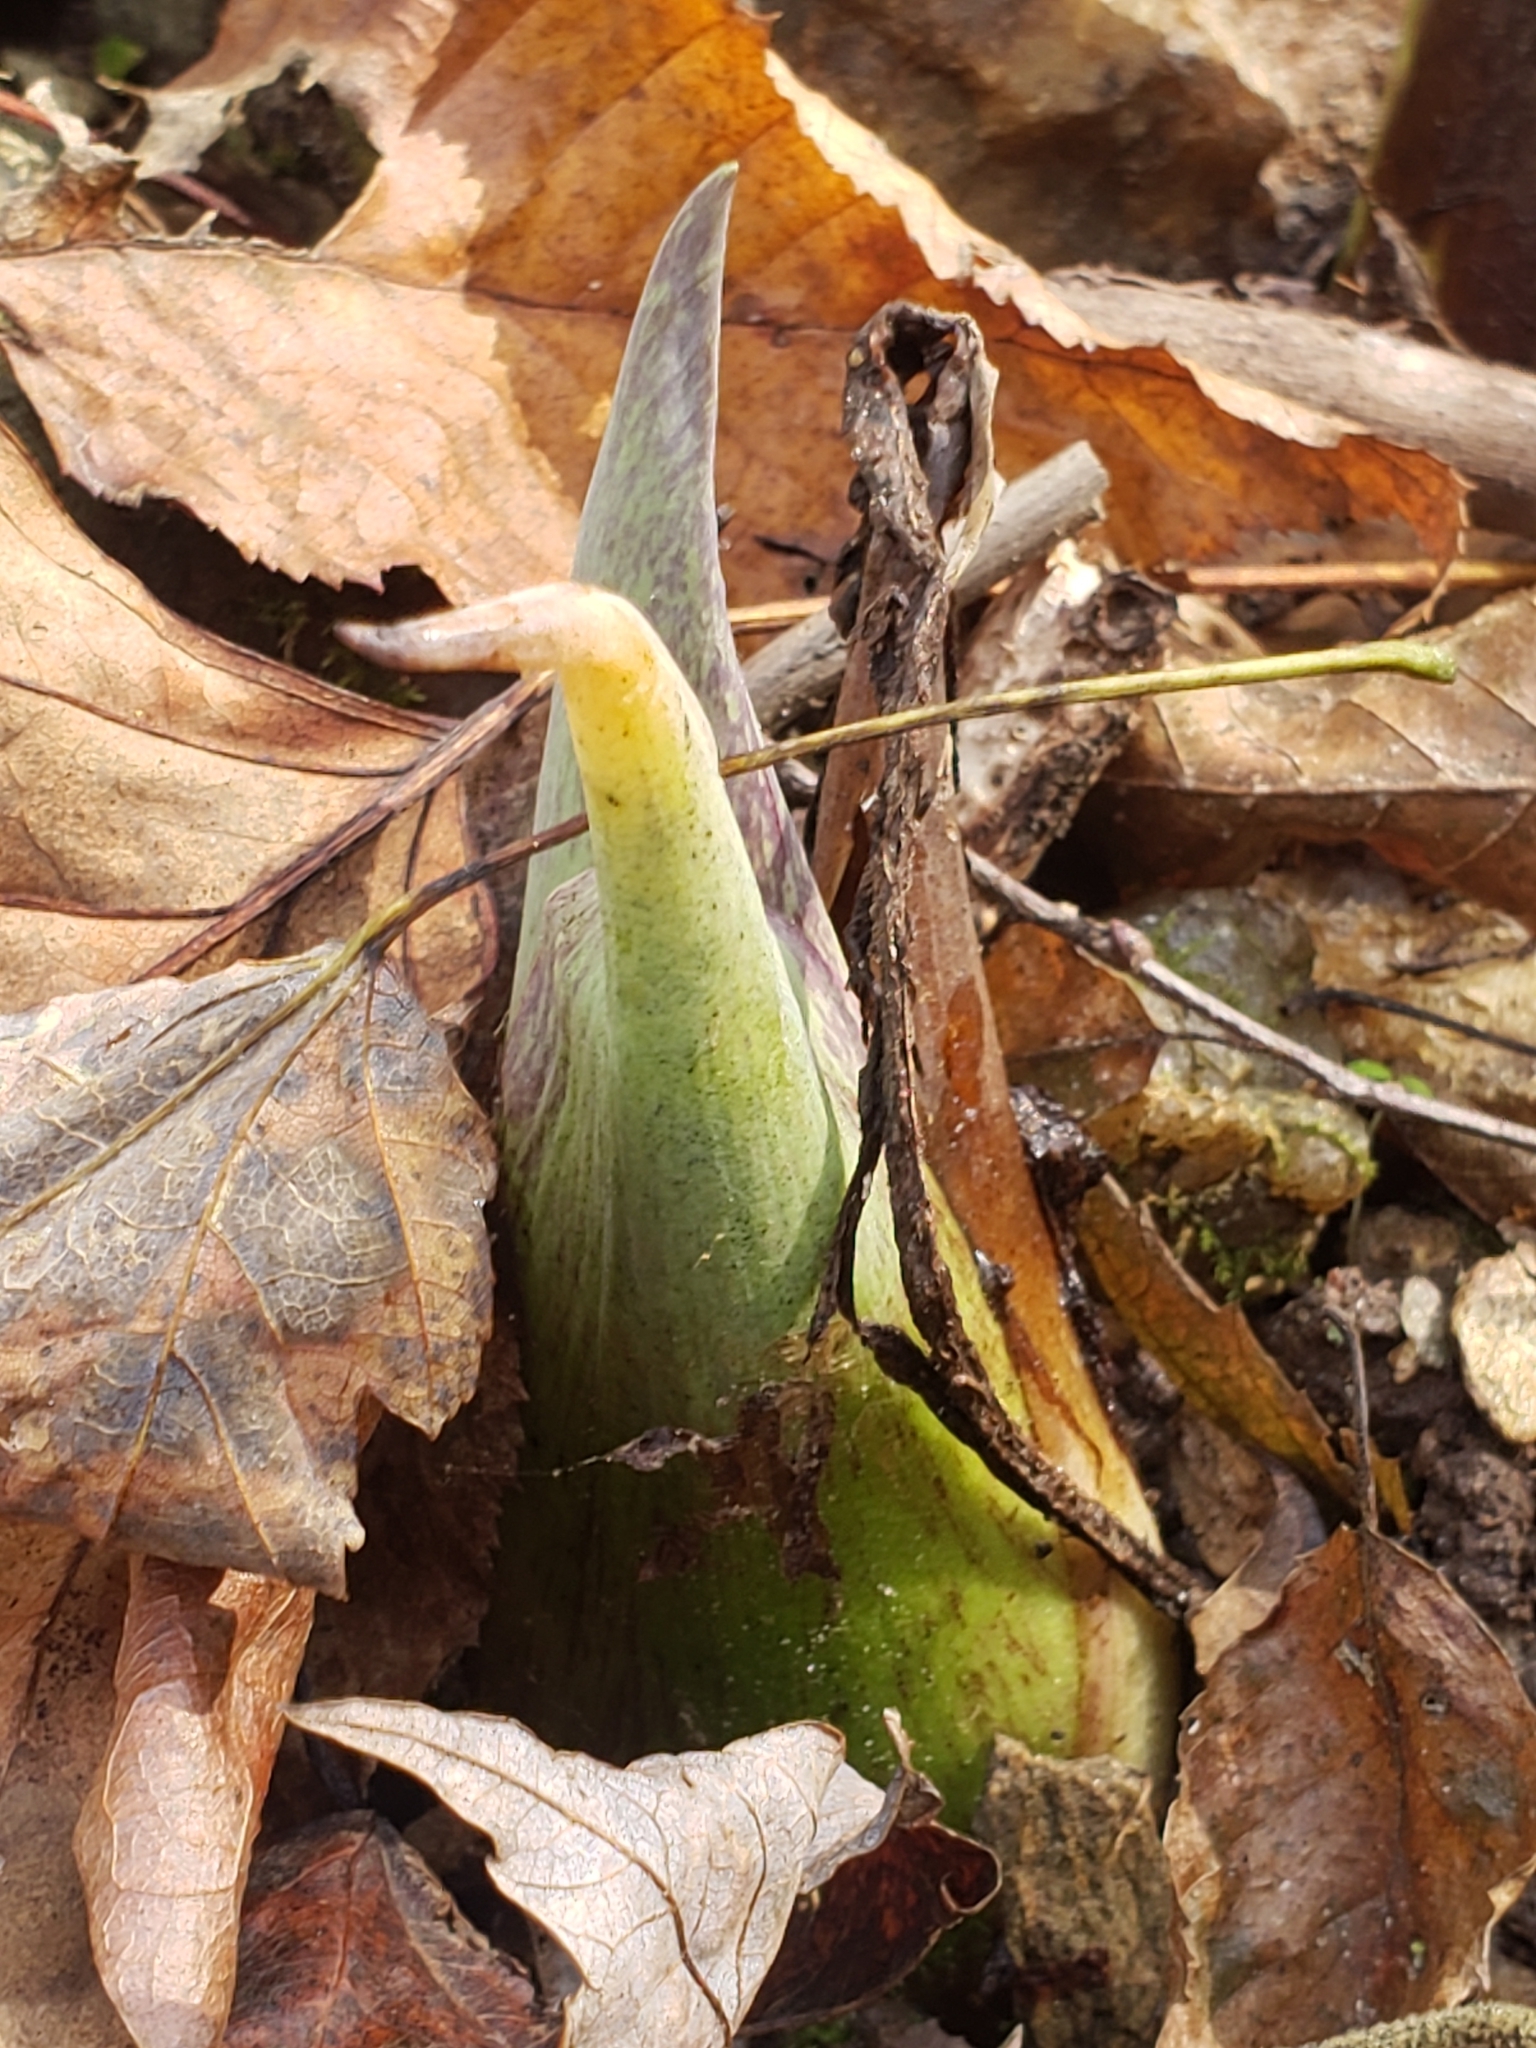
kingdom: Plantae
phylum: Tracheophyta
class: Liliopsida
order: Alismatales
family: Araceae
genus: Symplocarpus
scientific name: Symplocarpus foetidus
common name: Eastern skunk cabbage
